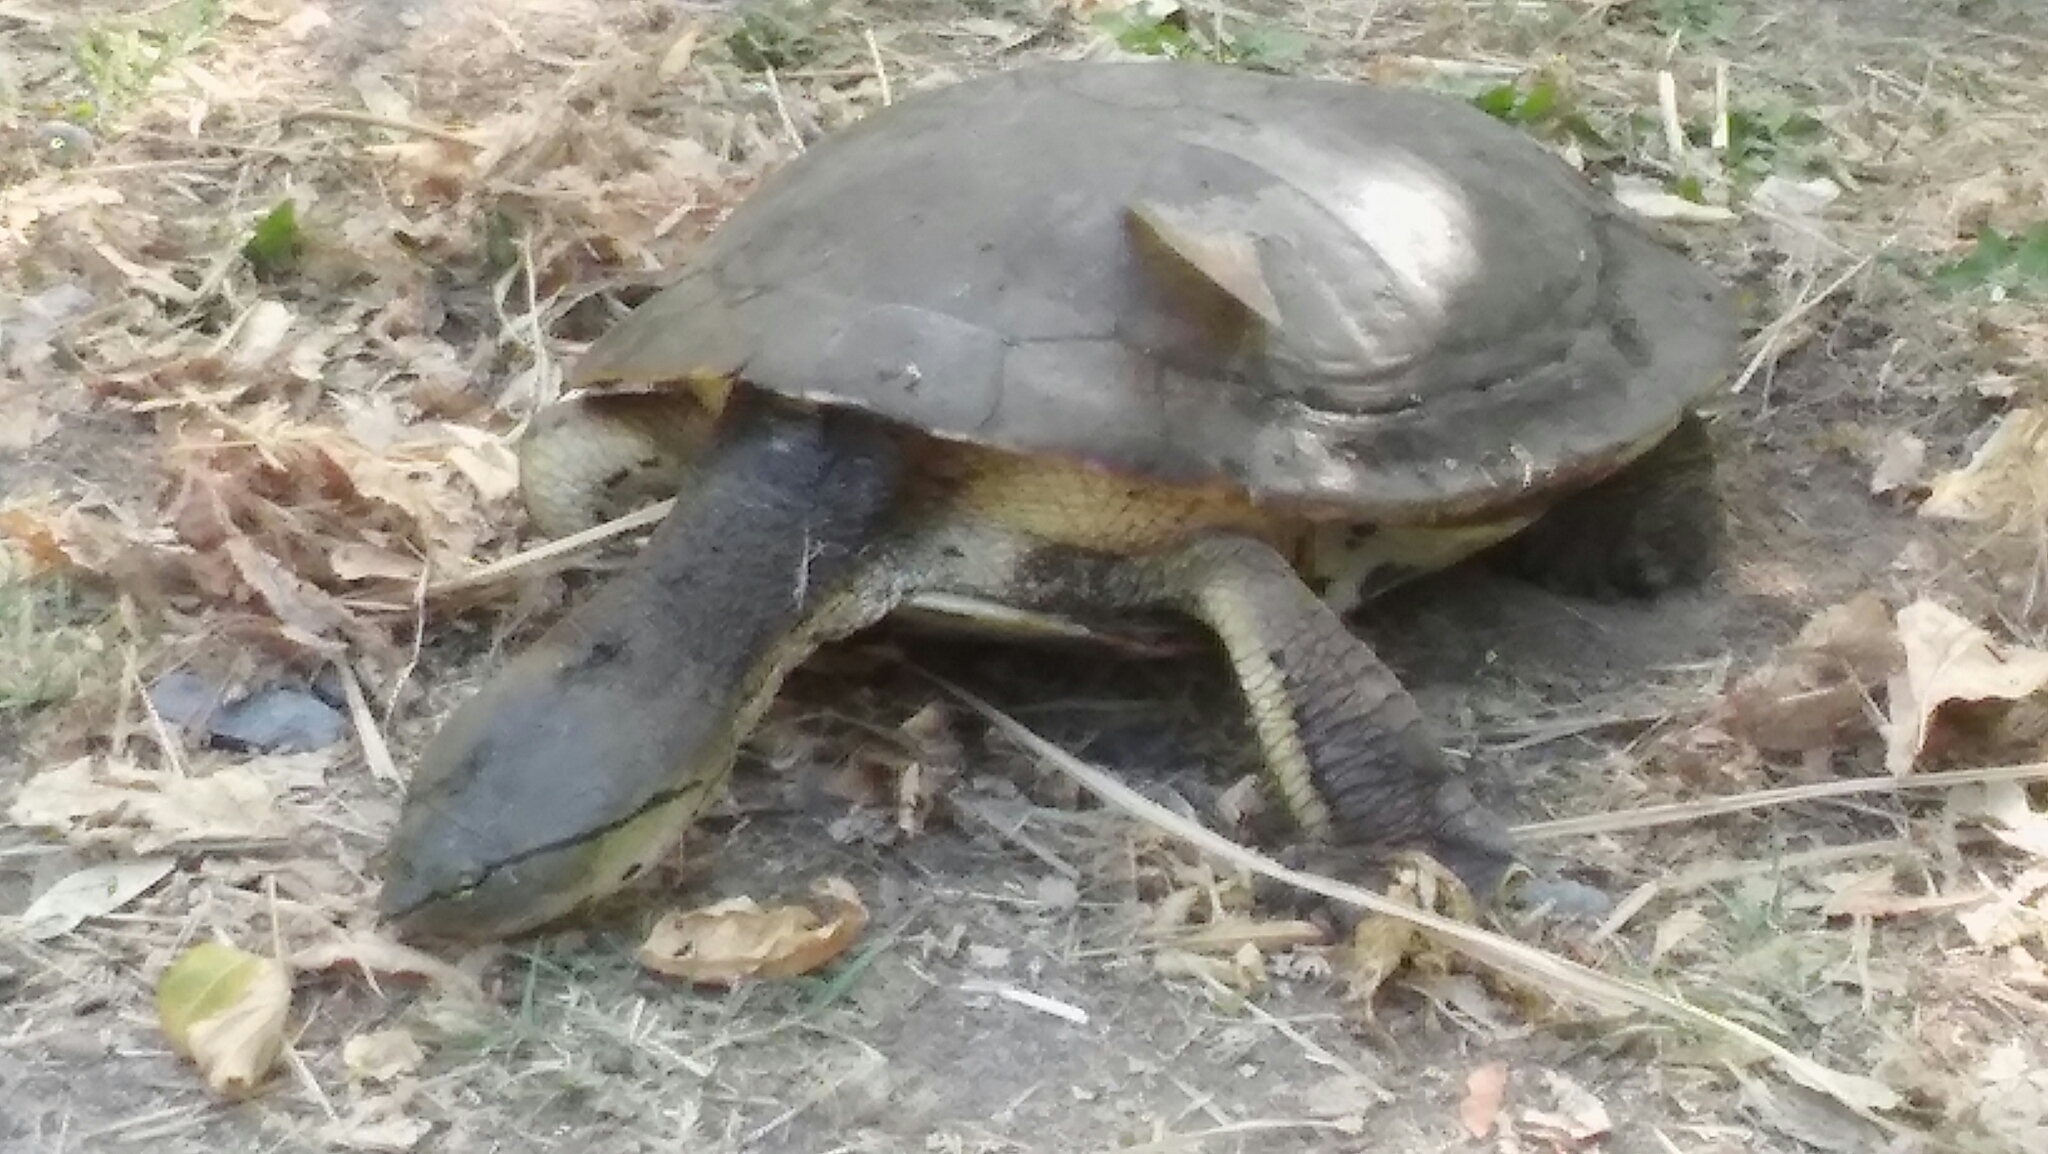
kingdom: Animalia
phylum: Chordata
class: Testudines
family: Chelidae
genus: Phrynops
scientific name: Phrynops hilarii
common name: Side-necked turtle of saint hillaire
